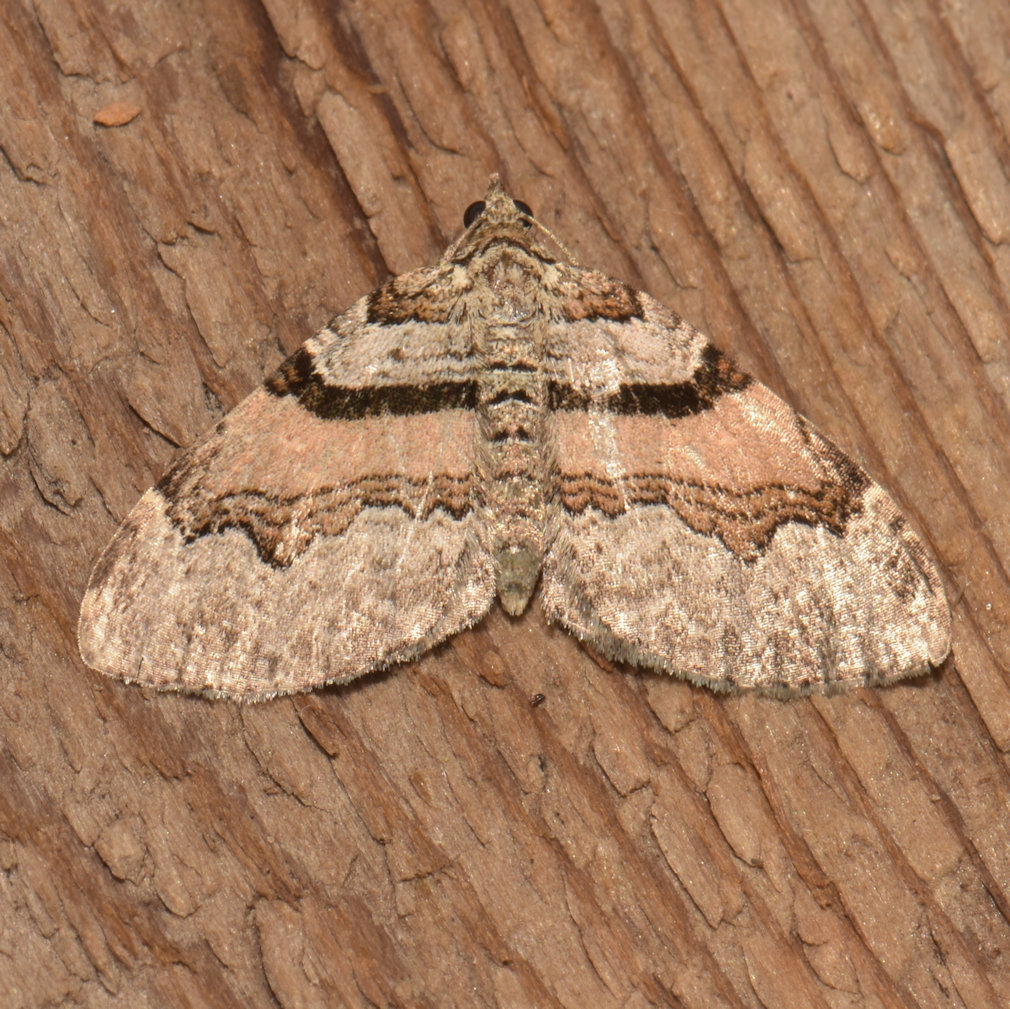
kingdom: Animalia
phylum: Arthropoda
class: Insecta
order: Lepidoptera
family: Geometridae
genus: Xanthorhoe
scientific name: Xanthorhoe labradorensis
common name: Labrador carpet
